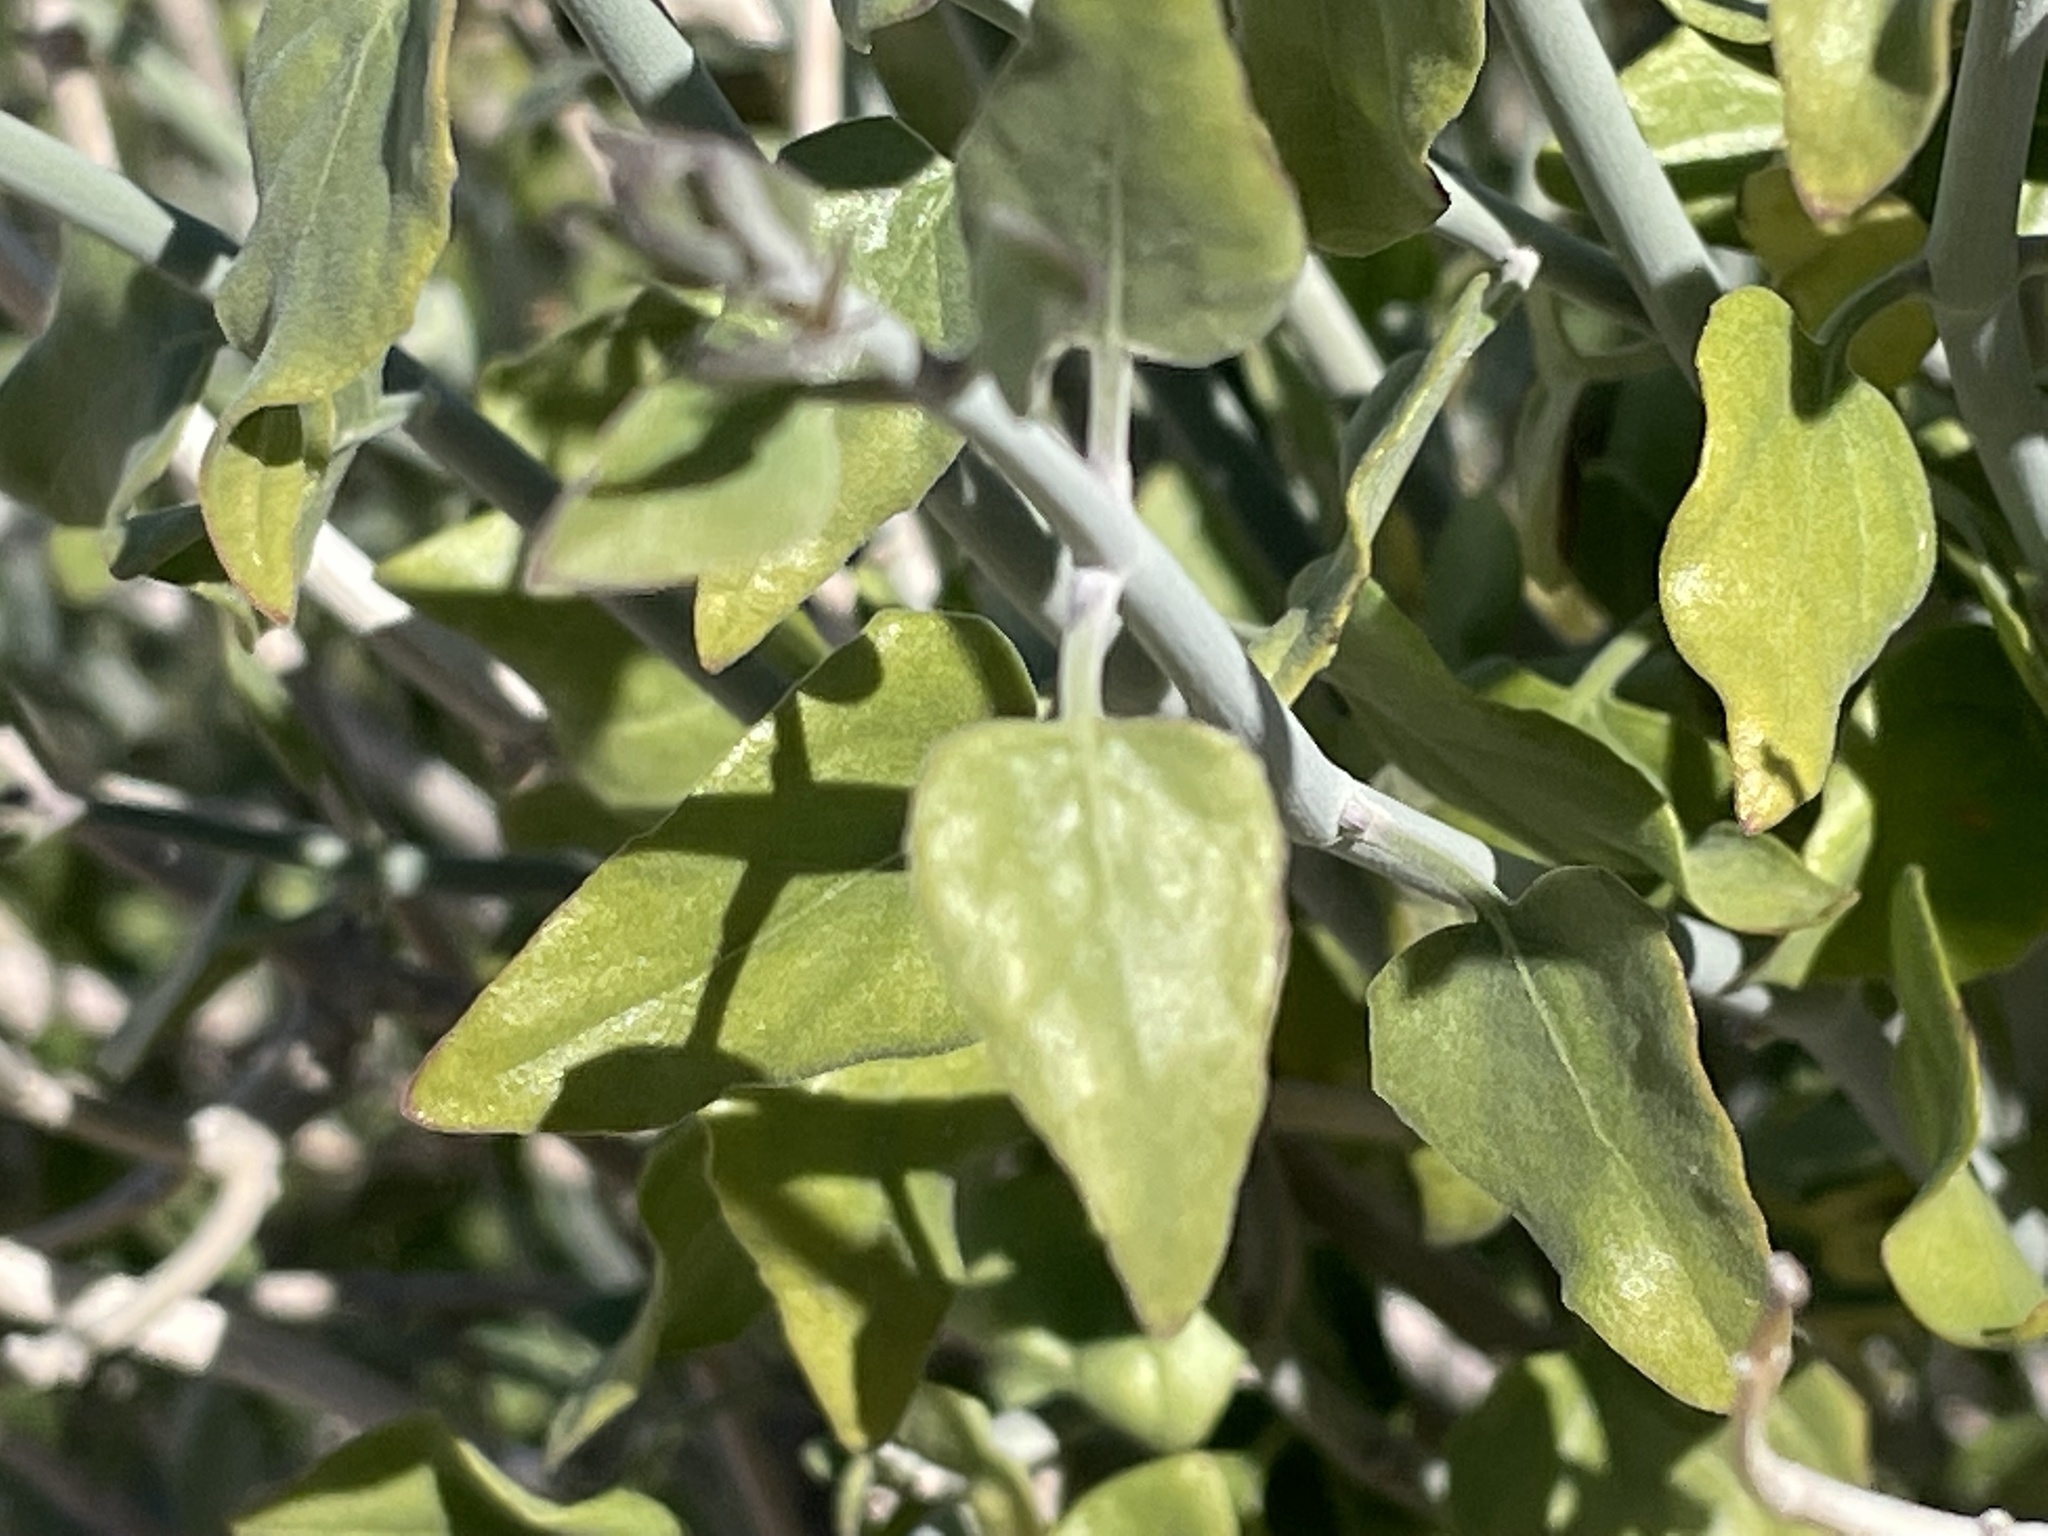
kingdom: Plantae
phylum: Tracheophyta
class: Magnoliopsida
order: Lamiales
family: Acanthaceae
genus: Justicia
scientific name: Justicia californica
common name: Chuparosa-honeysuckle
